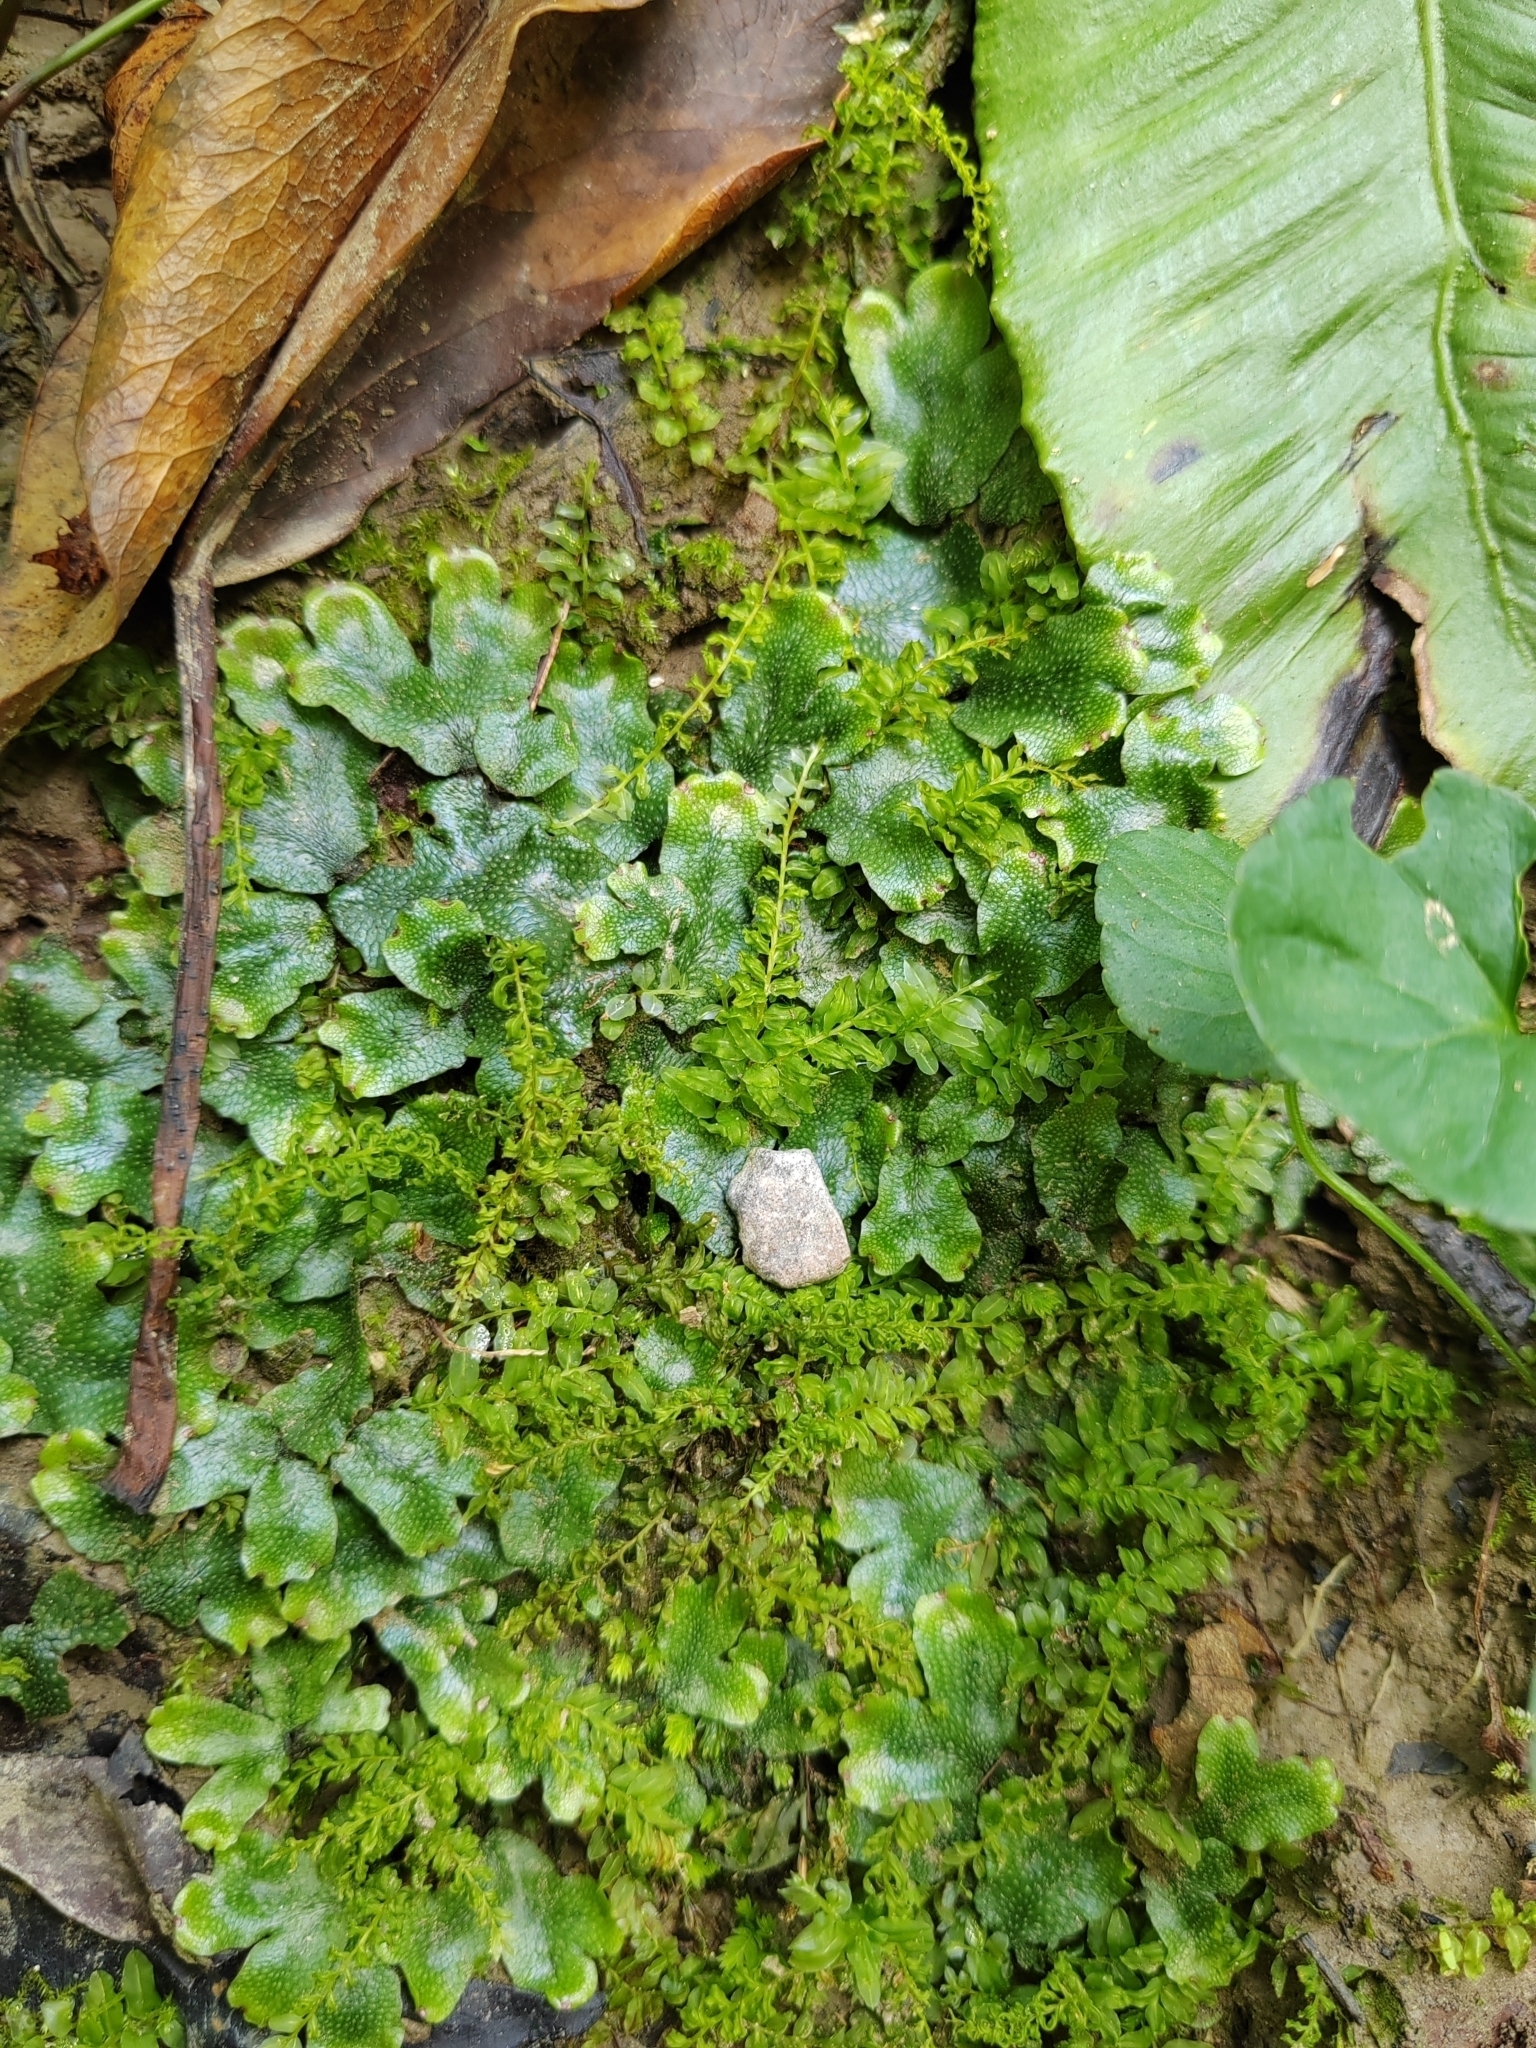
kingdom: Plantae
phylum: Marchantiophyta
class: Marchantiopsida
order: Marchantiales
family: Conocephalaceae
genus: Conocephalum
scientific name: Conocephalum salebrosum
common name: Cat-tongue liverwort
